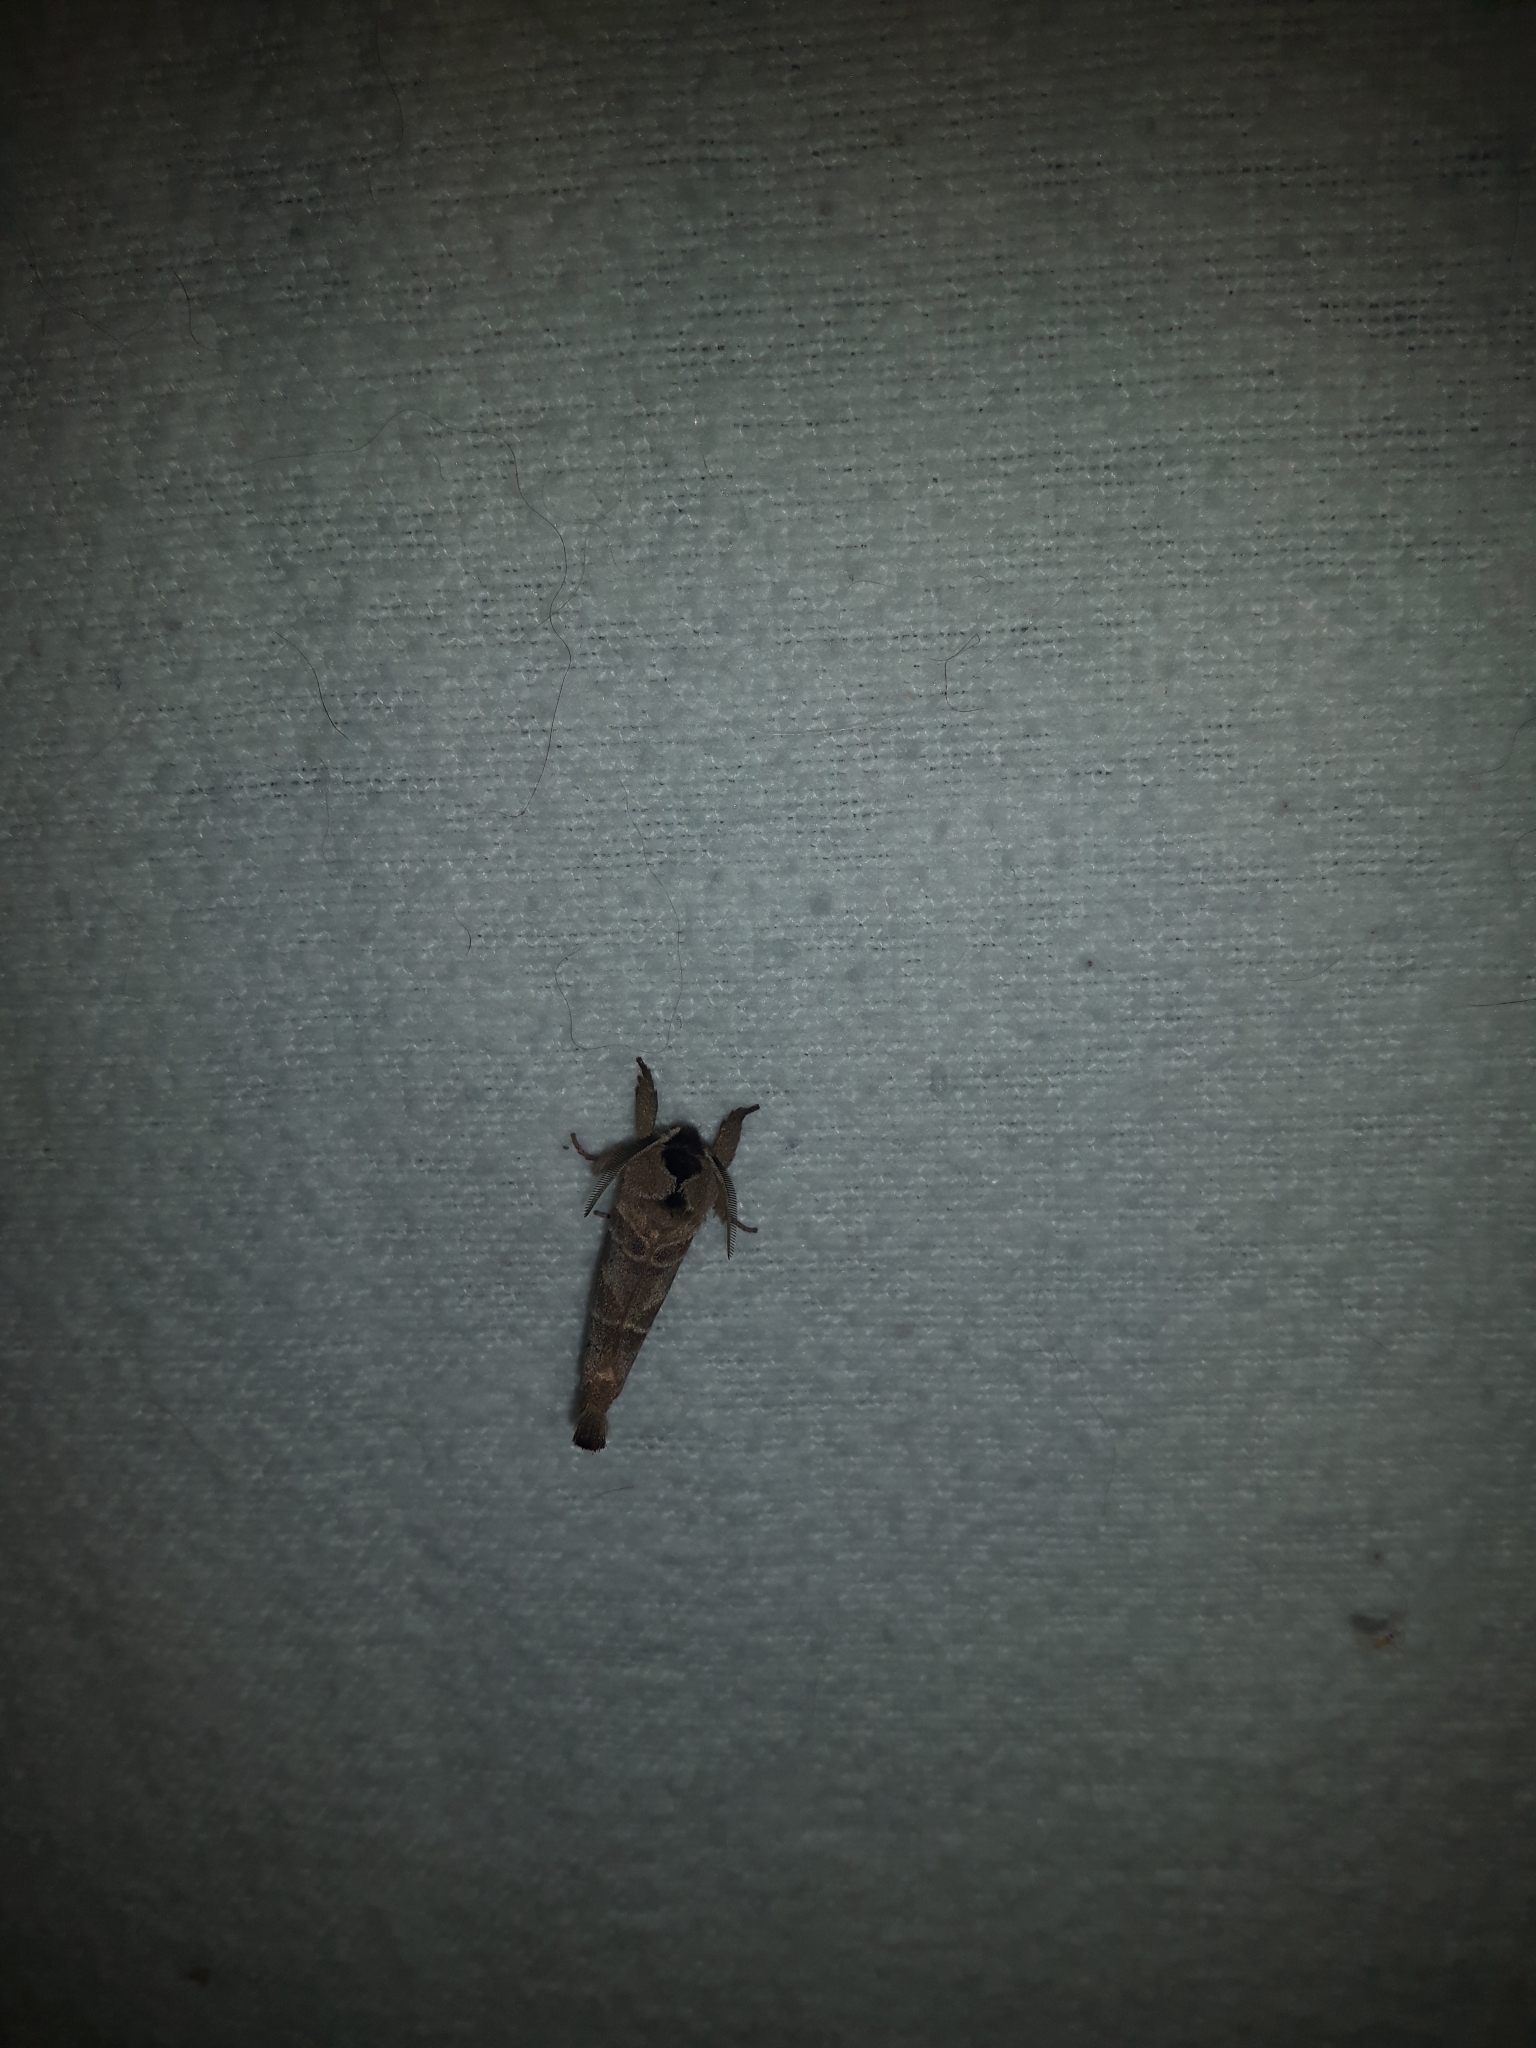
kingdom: Animalia
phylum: Arthropoda
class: Insecta
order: Lepidoptera
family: Notodontidae
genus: Clostera
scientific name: Clostera albosigma
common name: Sigmoid prominent
